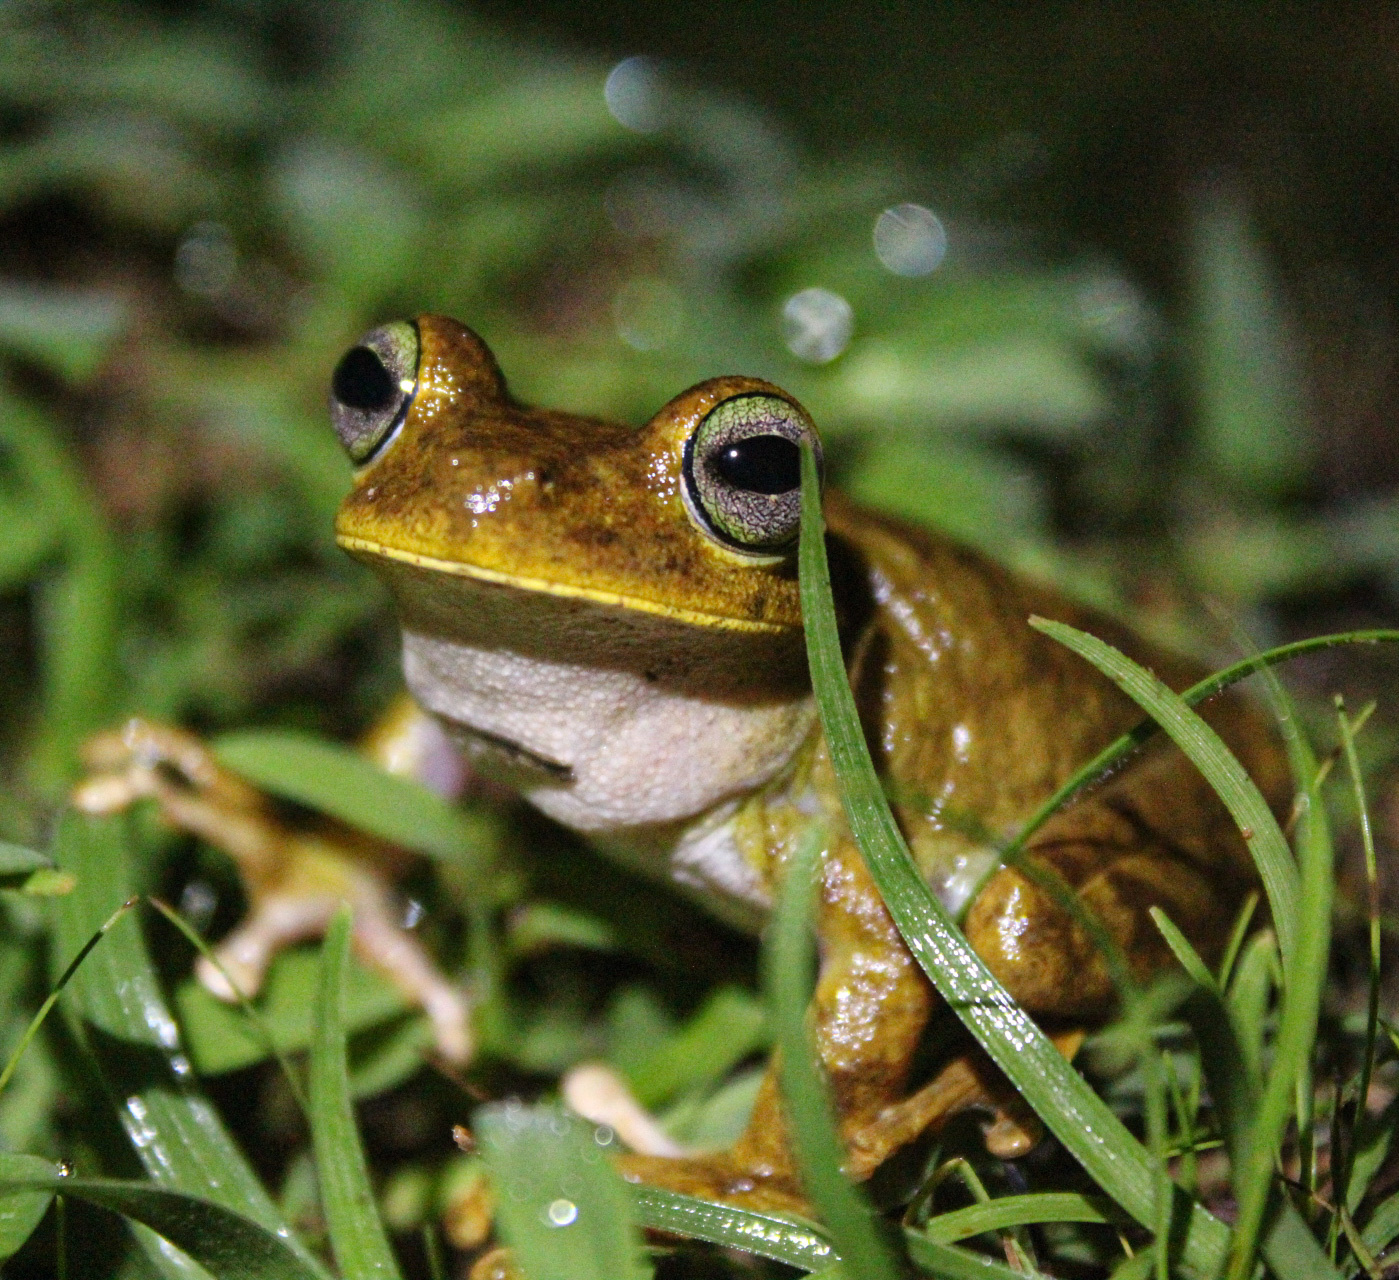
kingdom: Animalia
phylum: Chordata
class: Amphibia
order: Anura
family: Hylidae
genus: Boana
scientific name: Boana rosenbergi
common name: Rosenberg´s gladiator treefrog
